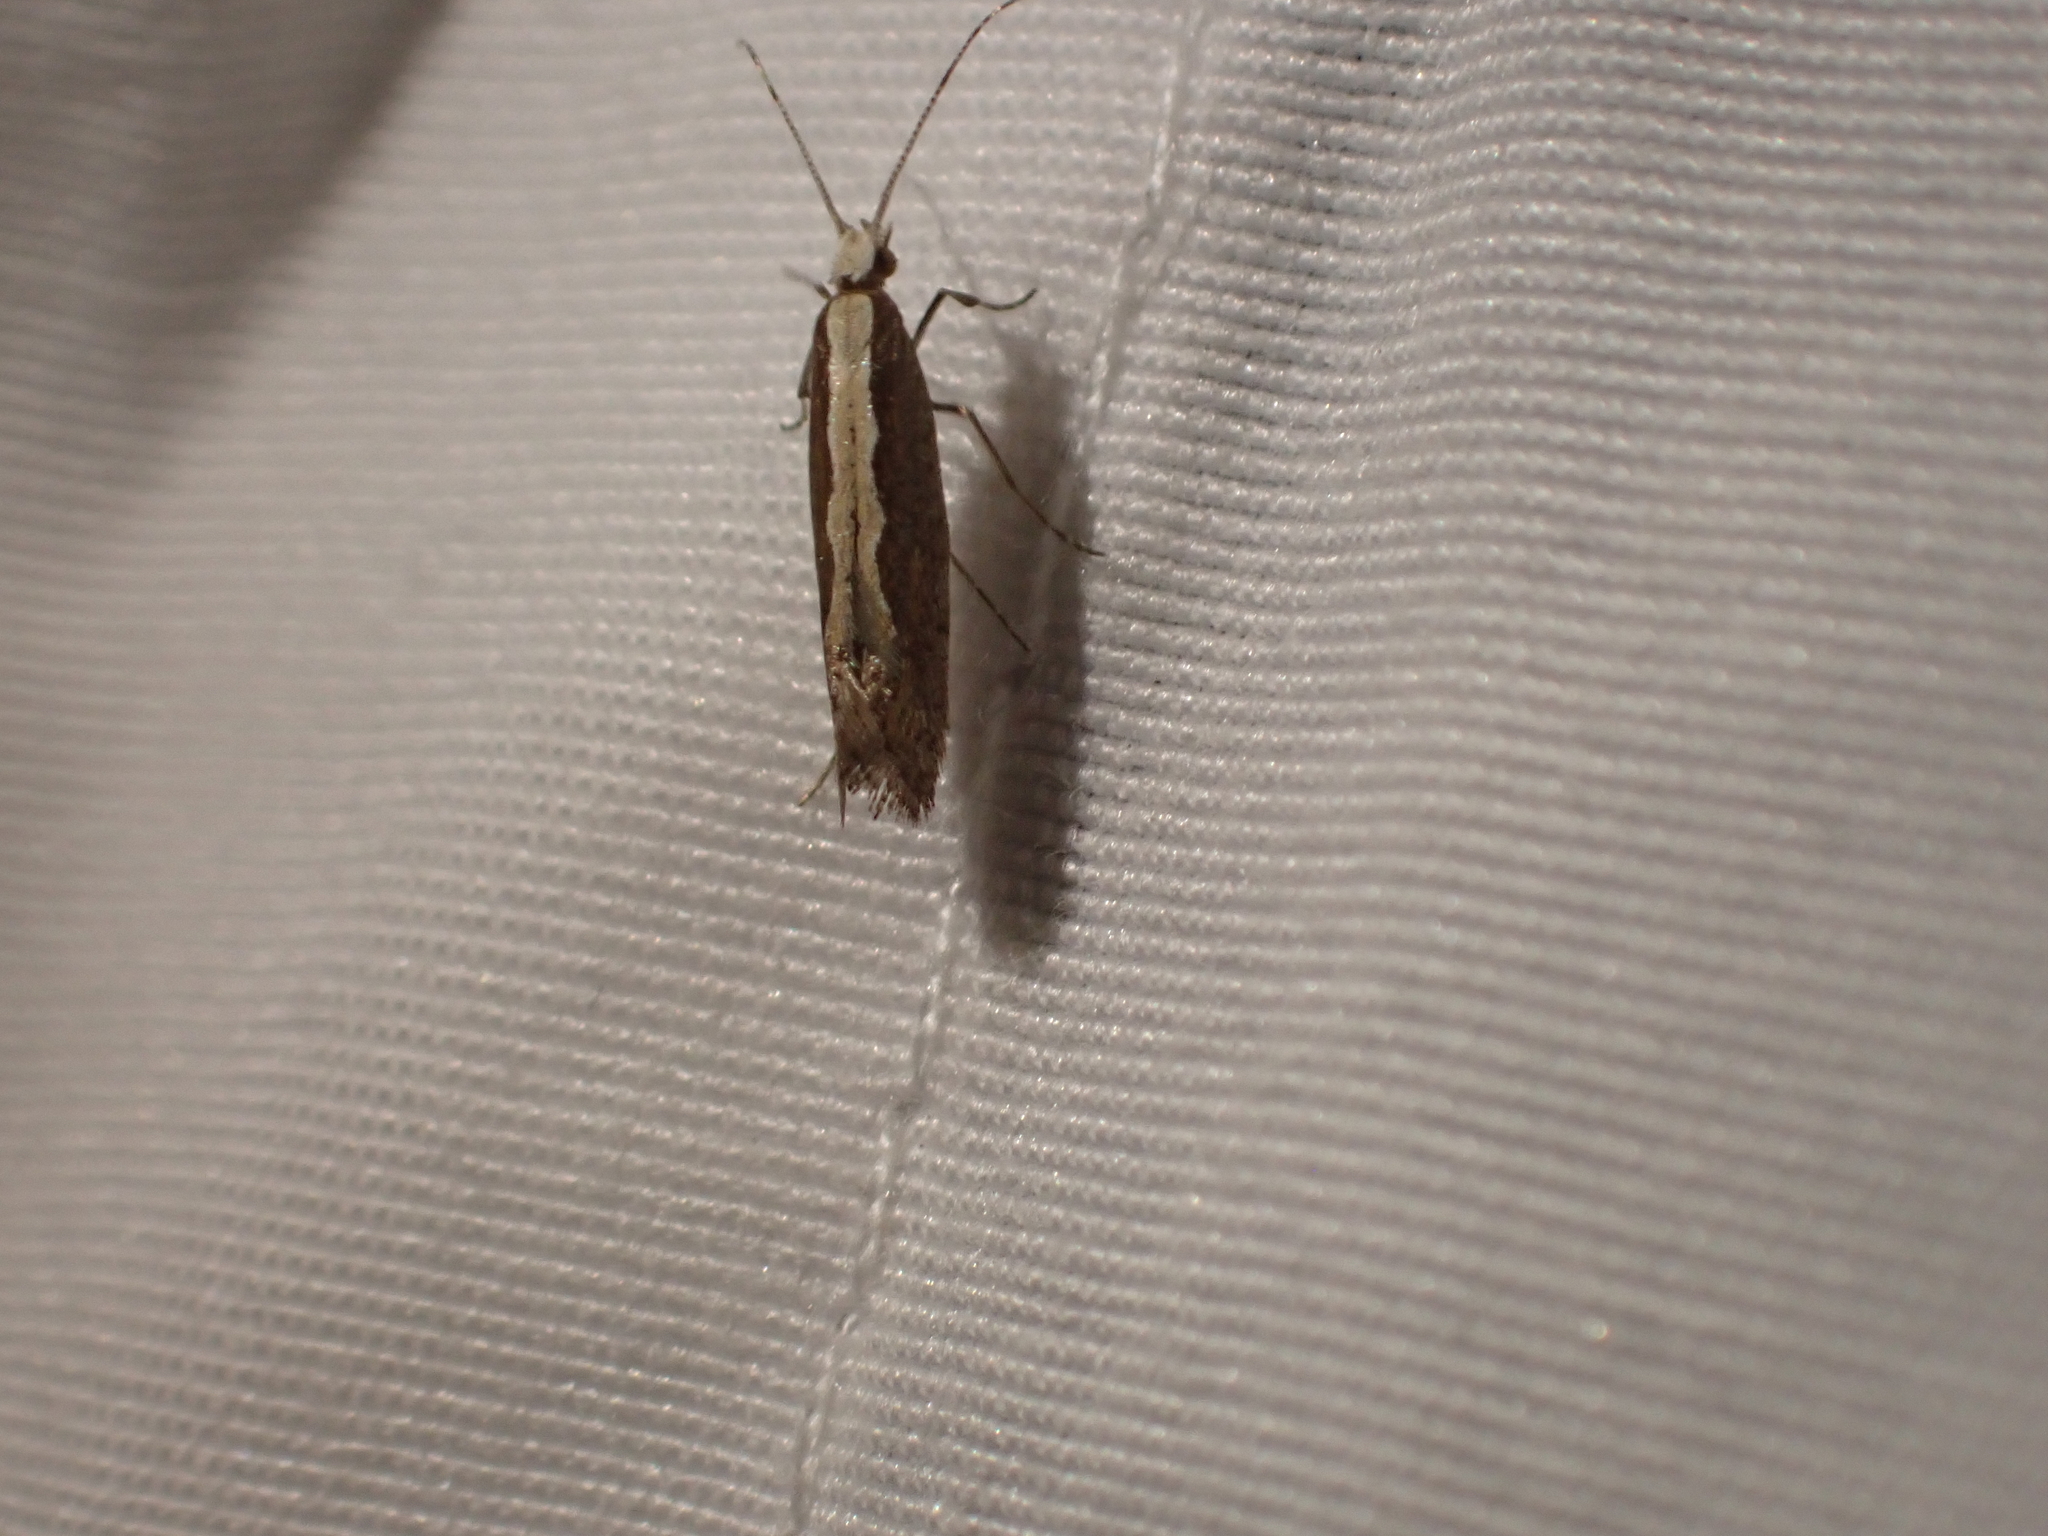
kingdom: Animalia
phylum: Arthropoda
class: Insecta
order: Lepidoptera
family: Plutellidae
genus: Plutella
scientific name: Plutella xylostella
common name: Diamond-back moth
